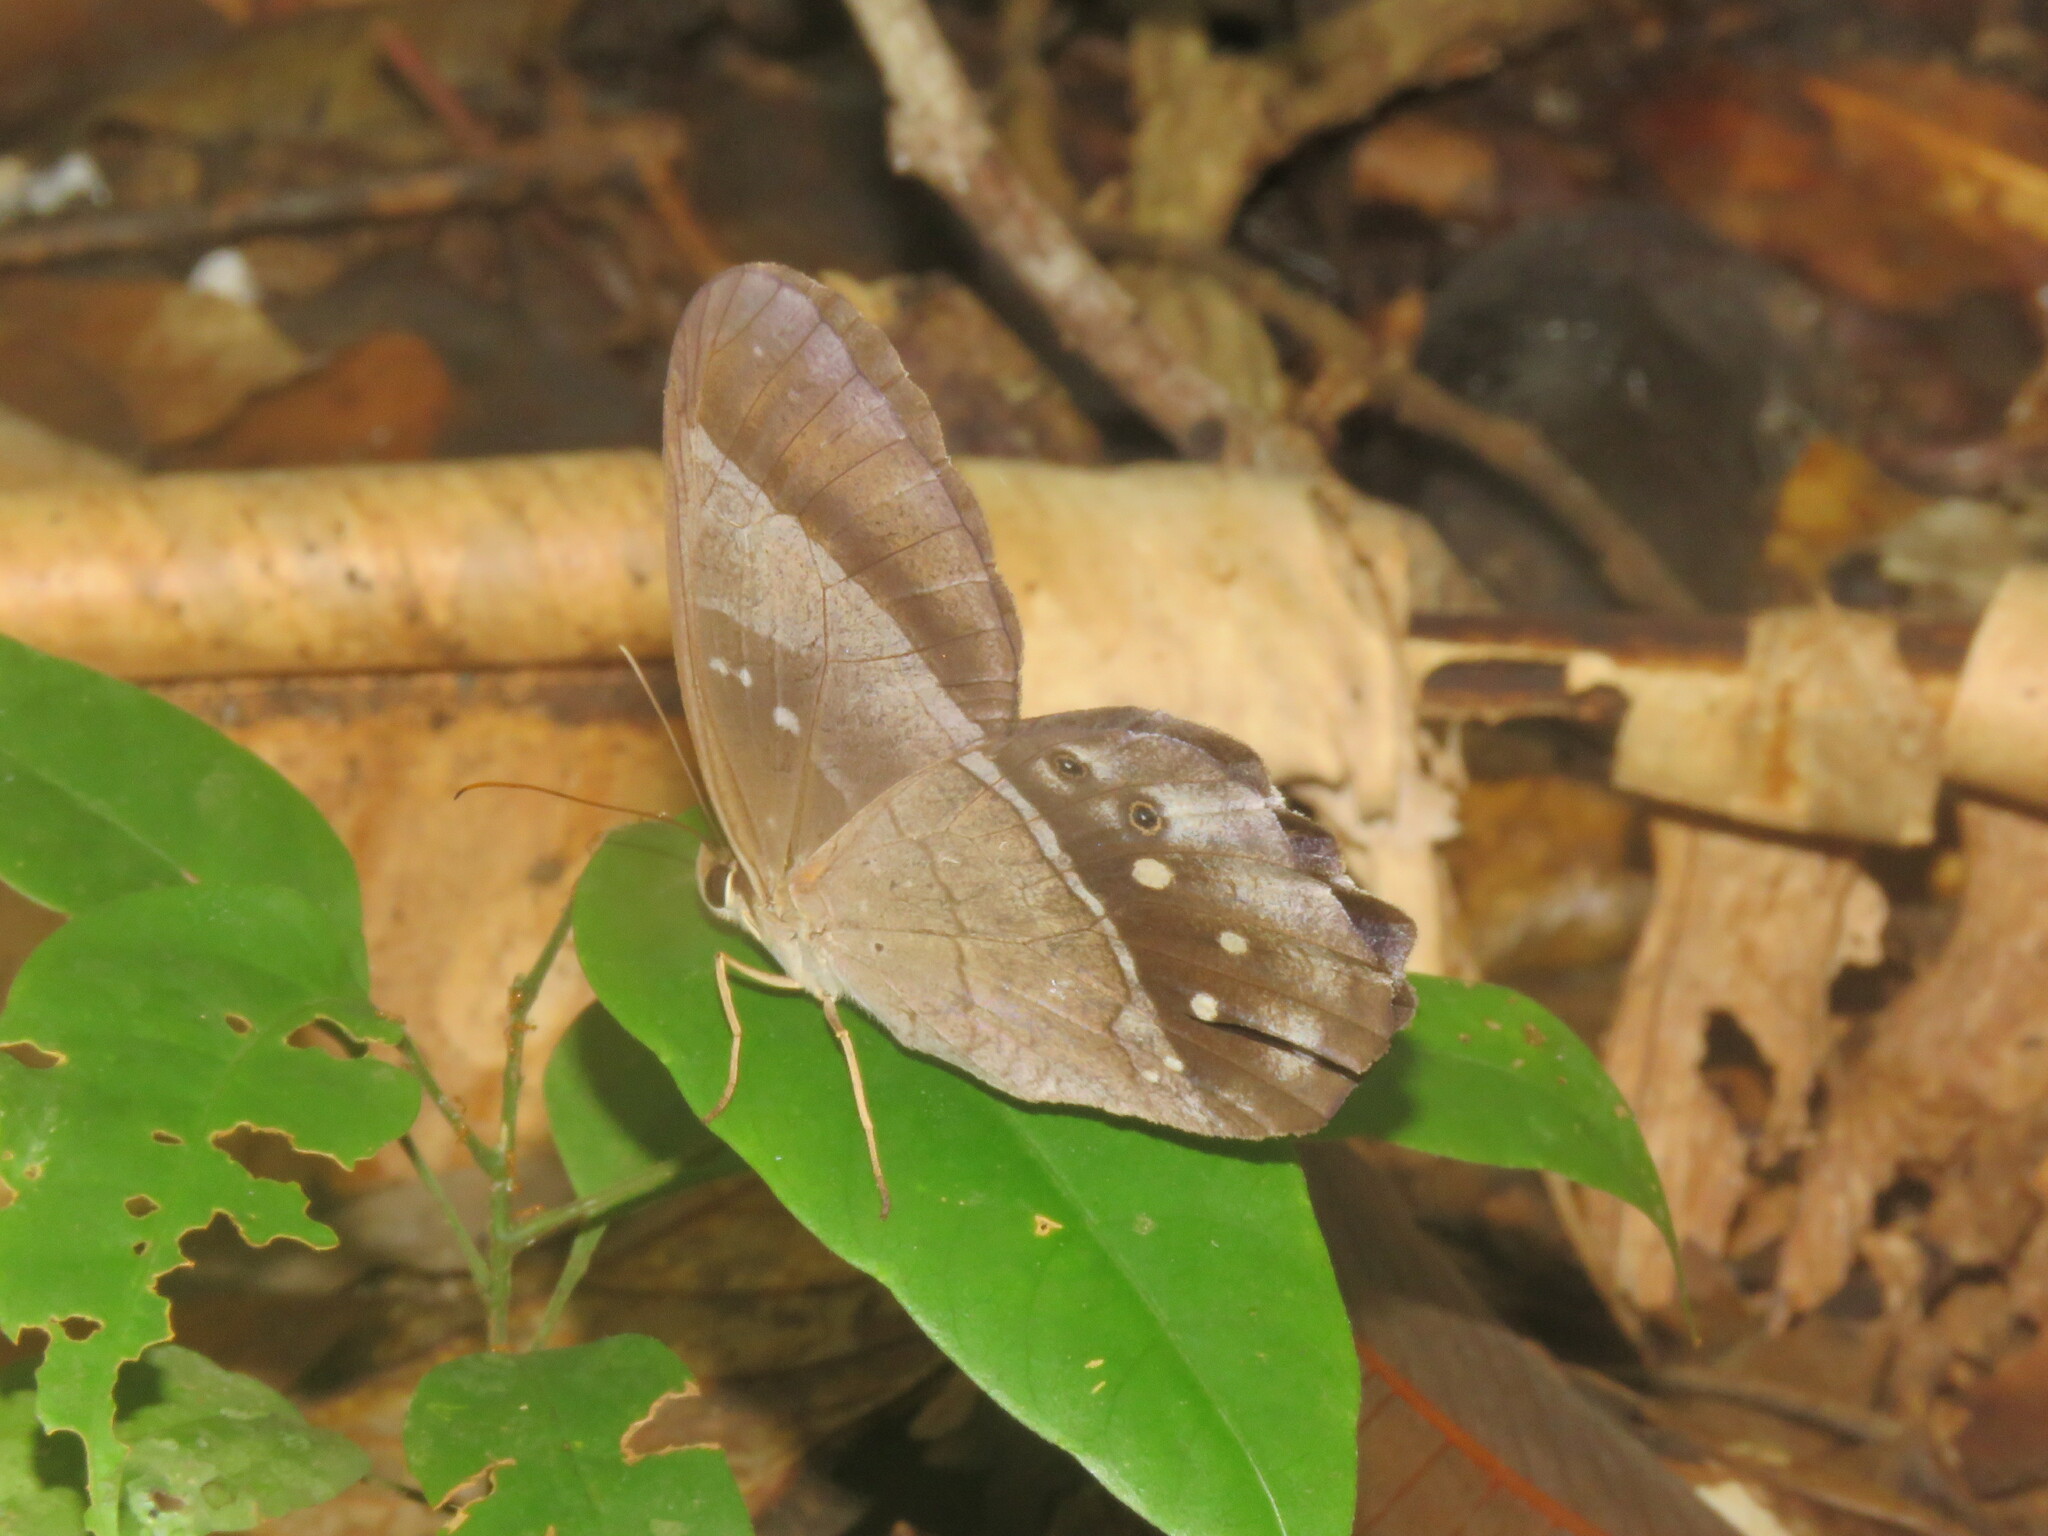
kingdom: Animalia
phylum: Arthropoda
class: Insecta
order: Lepidoptera
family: Nymphalidae
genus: Pierella
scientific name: Pierella lena
